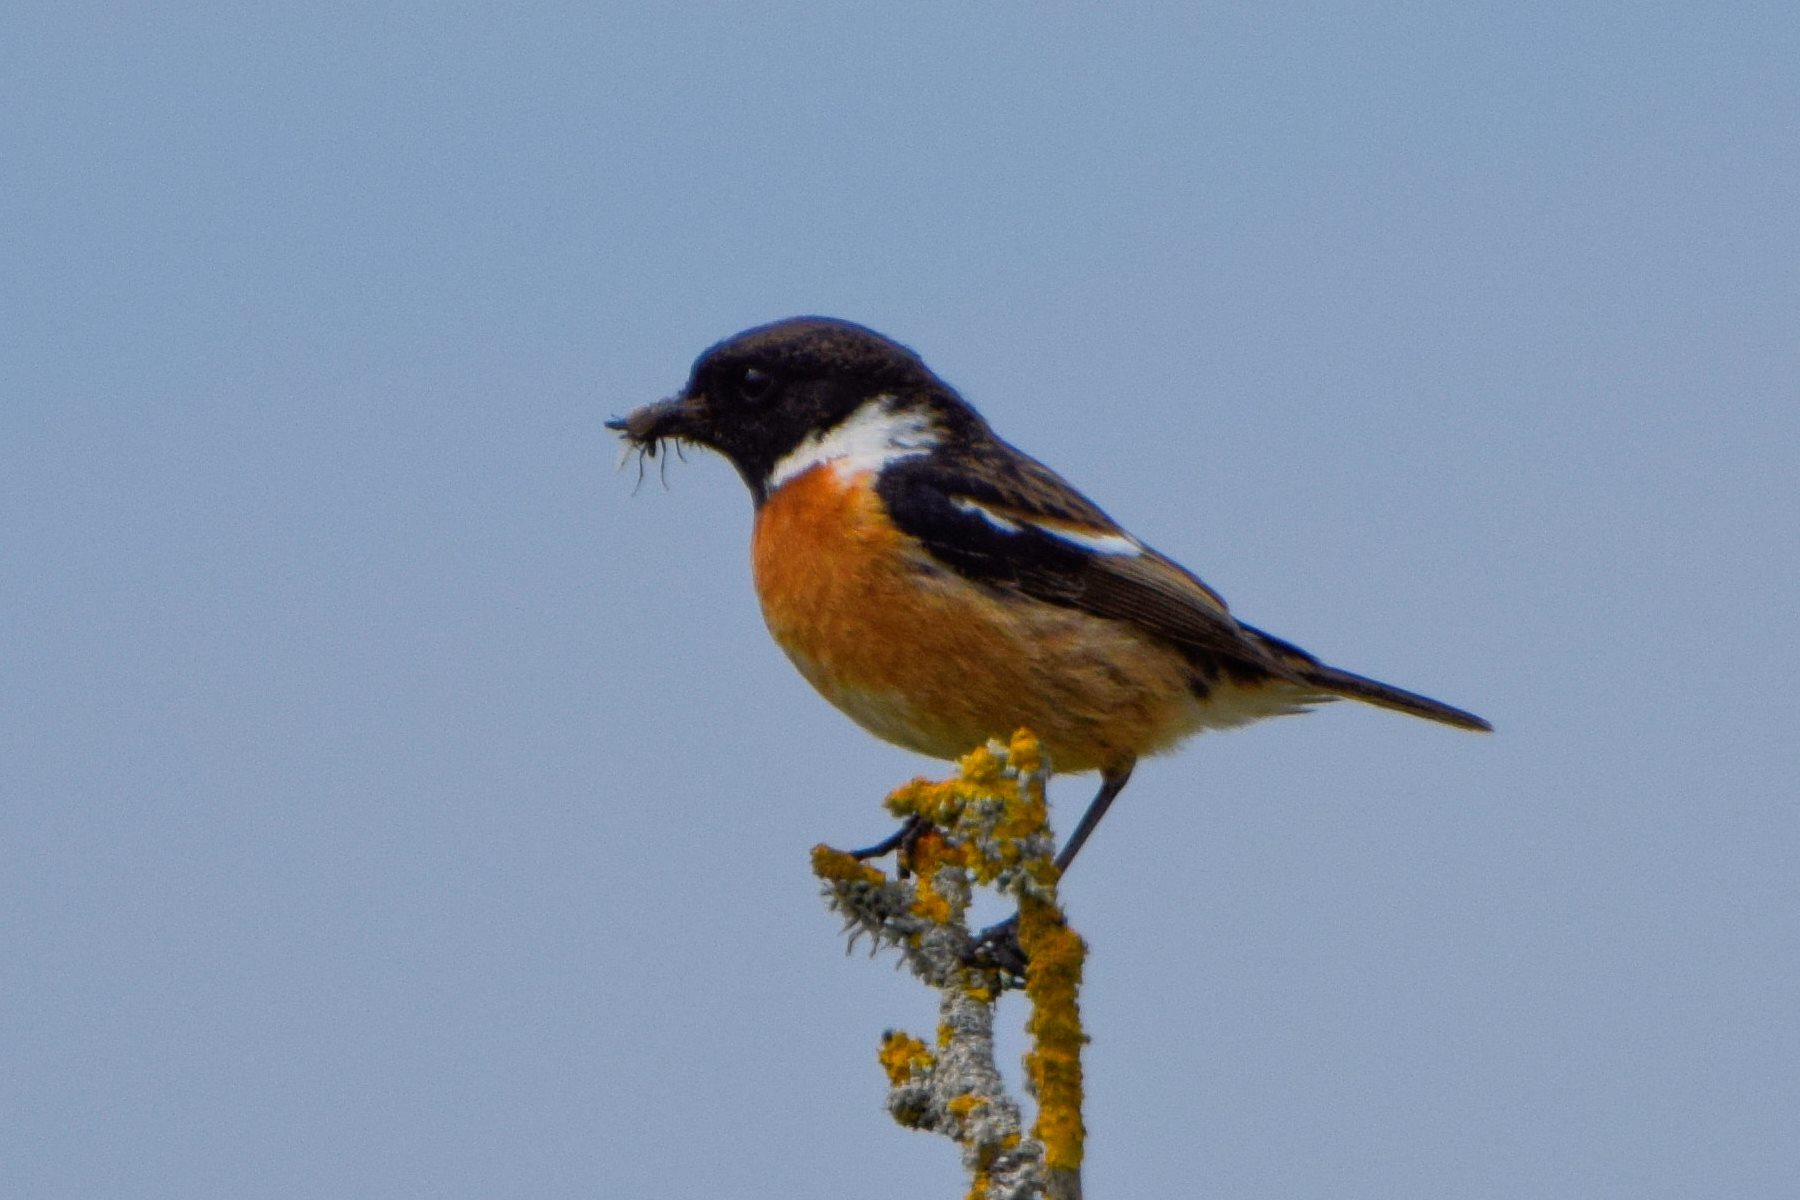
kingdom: Animalia
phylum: Chordata
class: Aves
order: Passeriformes
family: Muscicapidae
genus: Saxicola
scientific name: Saxicola rubicola
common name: European stonechat
